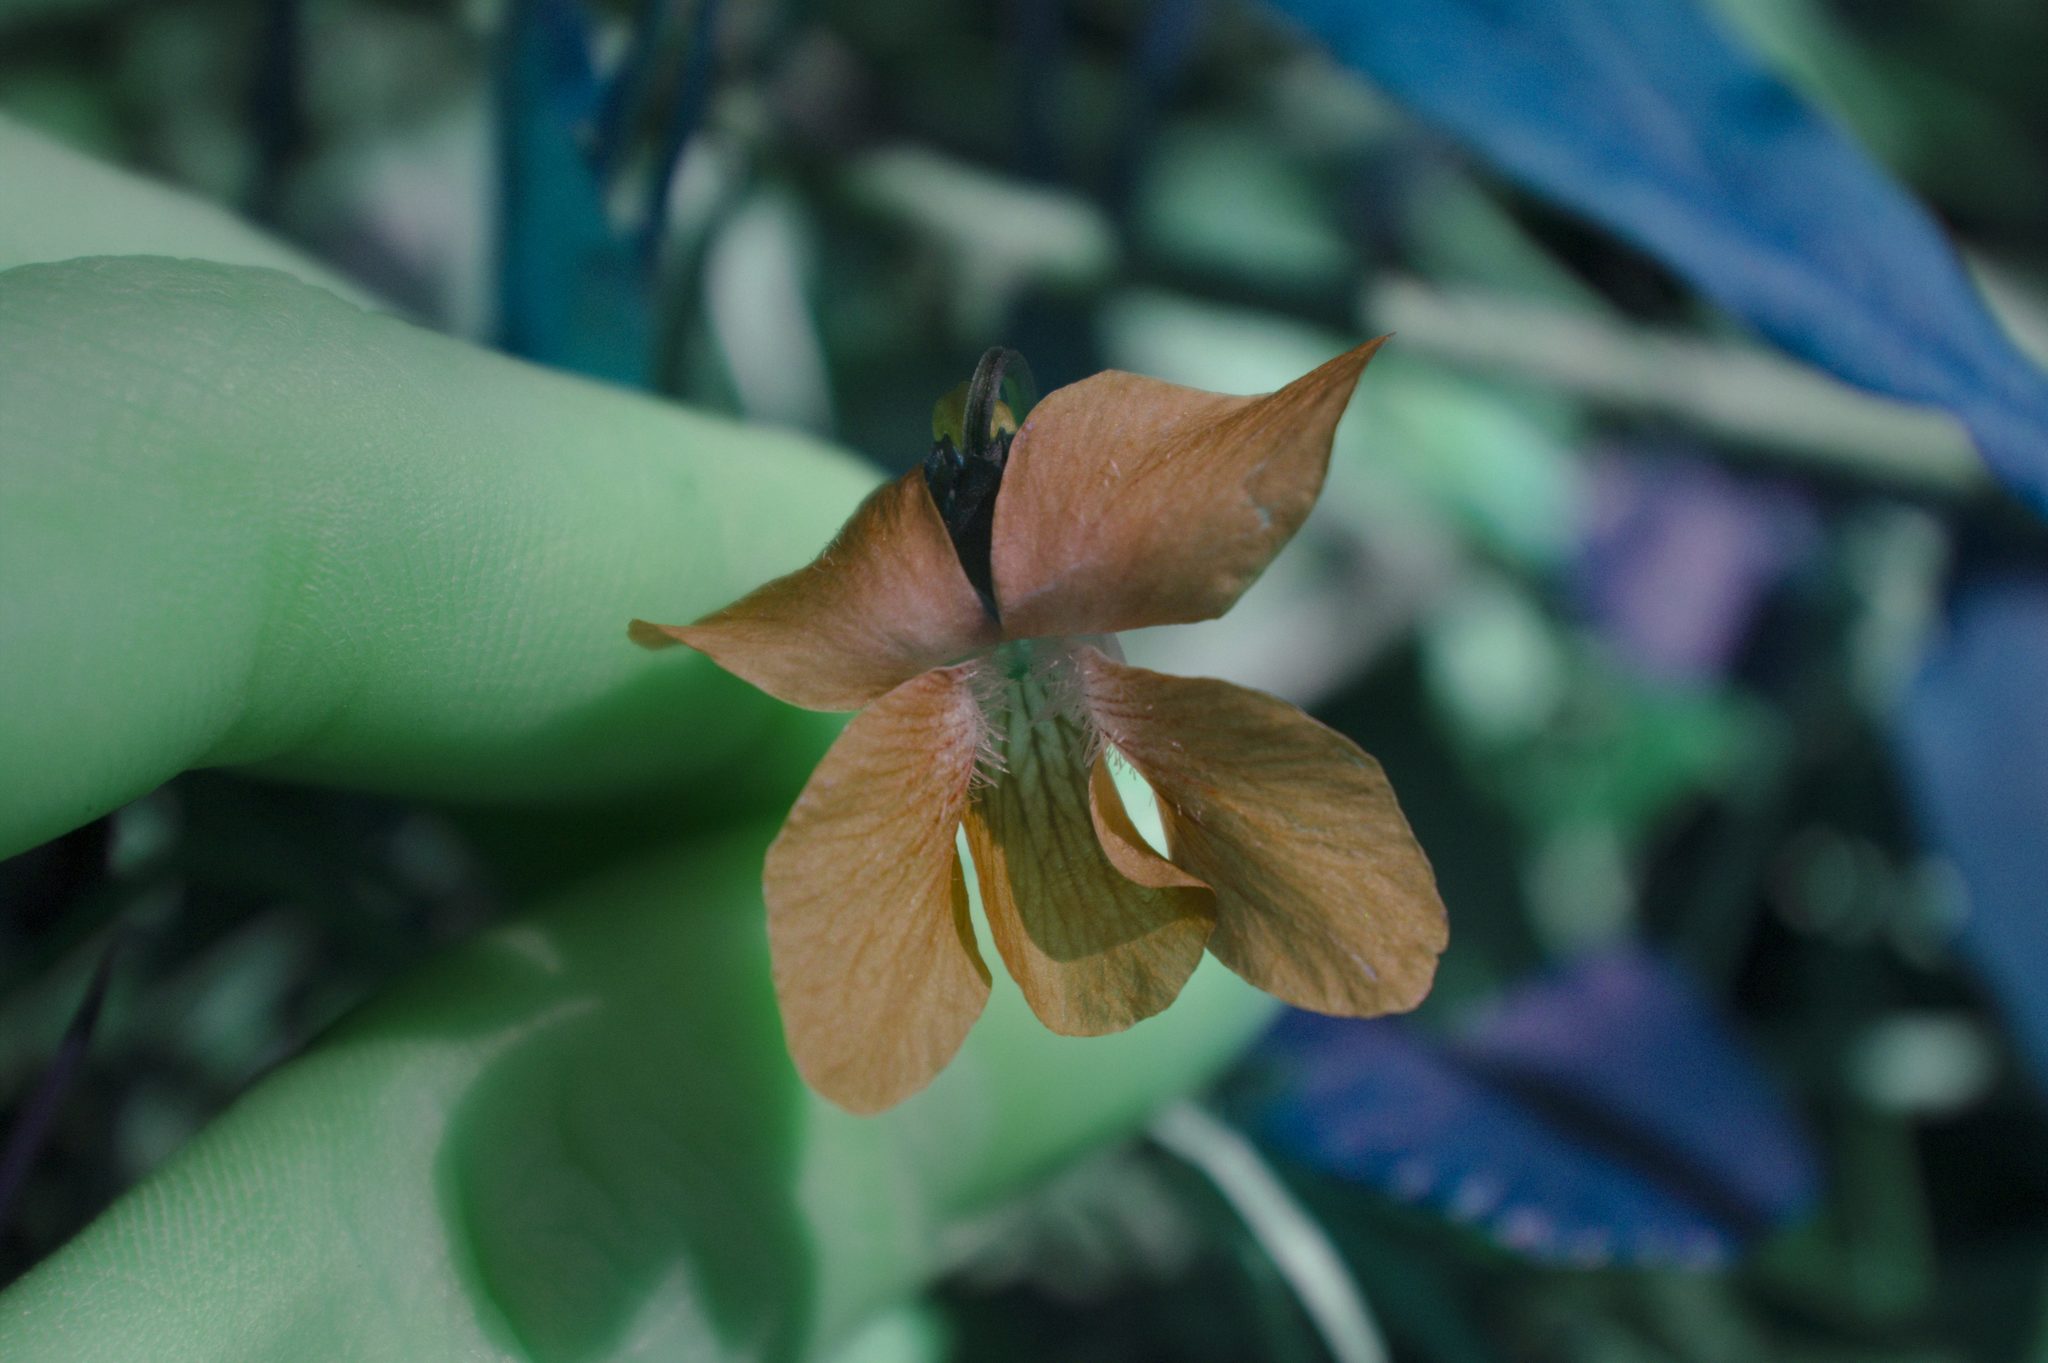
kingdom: Plantae
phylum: Tracheophyta
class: Magnoliopsida
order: Malpighiales
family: Violaceae
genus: Viola
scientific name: Viola sororia
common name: Dooryard violet
